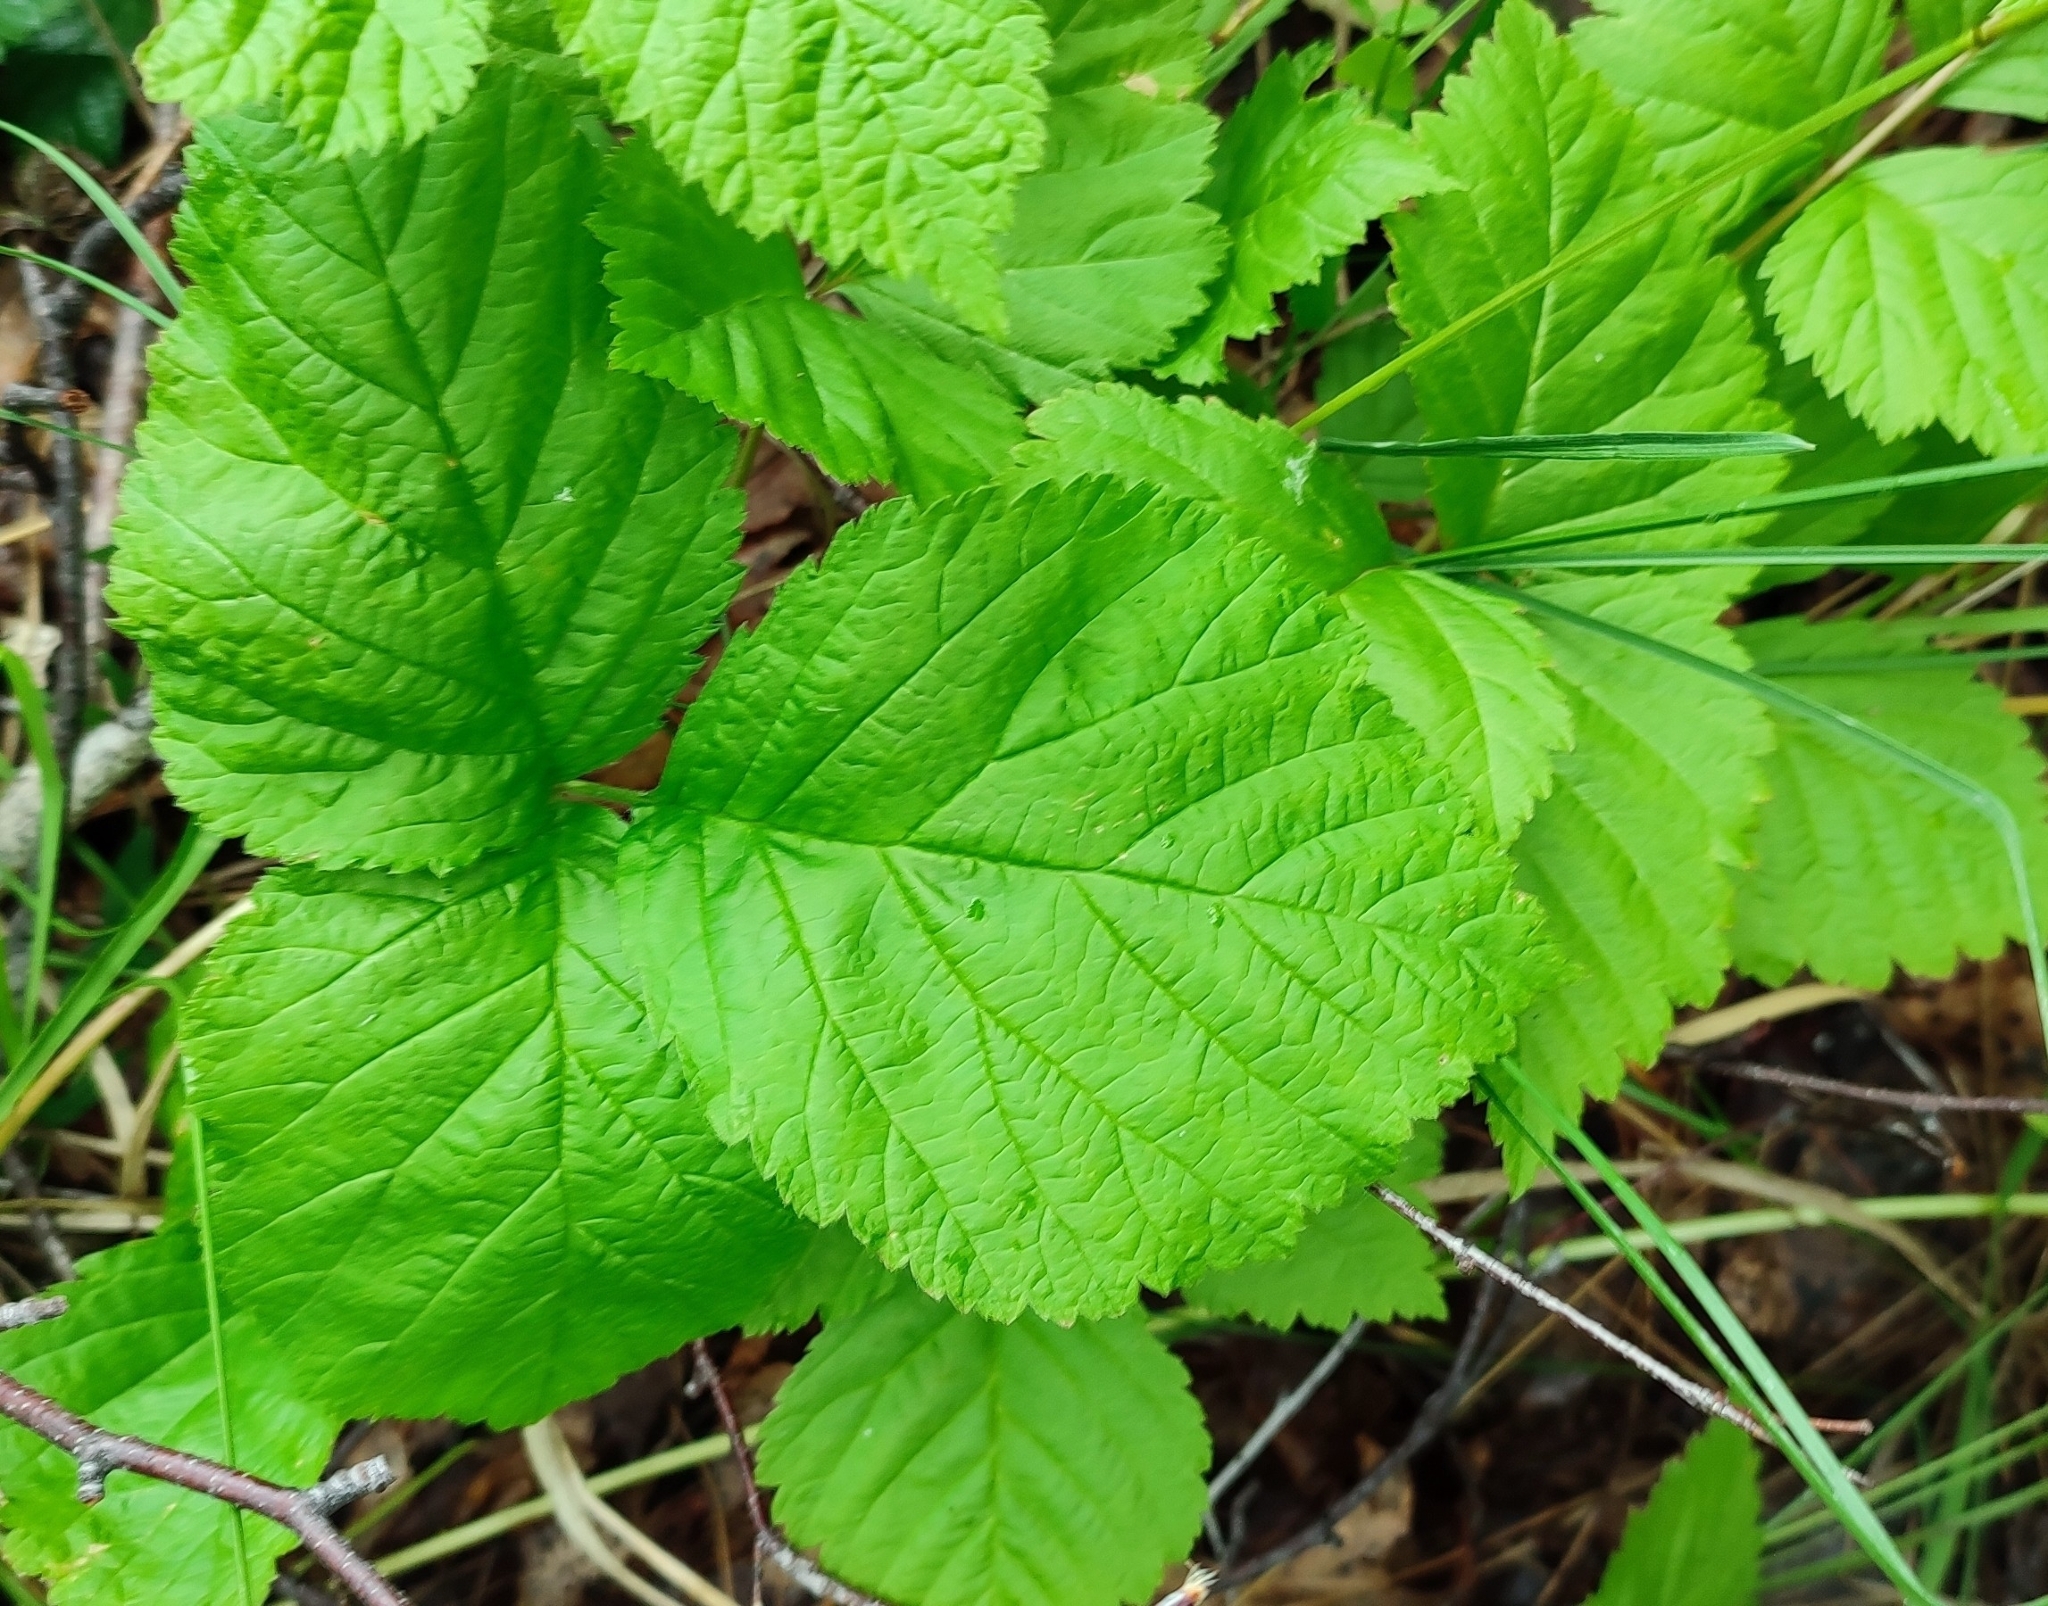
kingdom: Plantae
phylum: Tracheophyta
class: Magnoliopsida
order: Rosales
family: Rosaceae
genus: Rubus
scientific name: Rubus saxatilis
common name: Stone bramble
